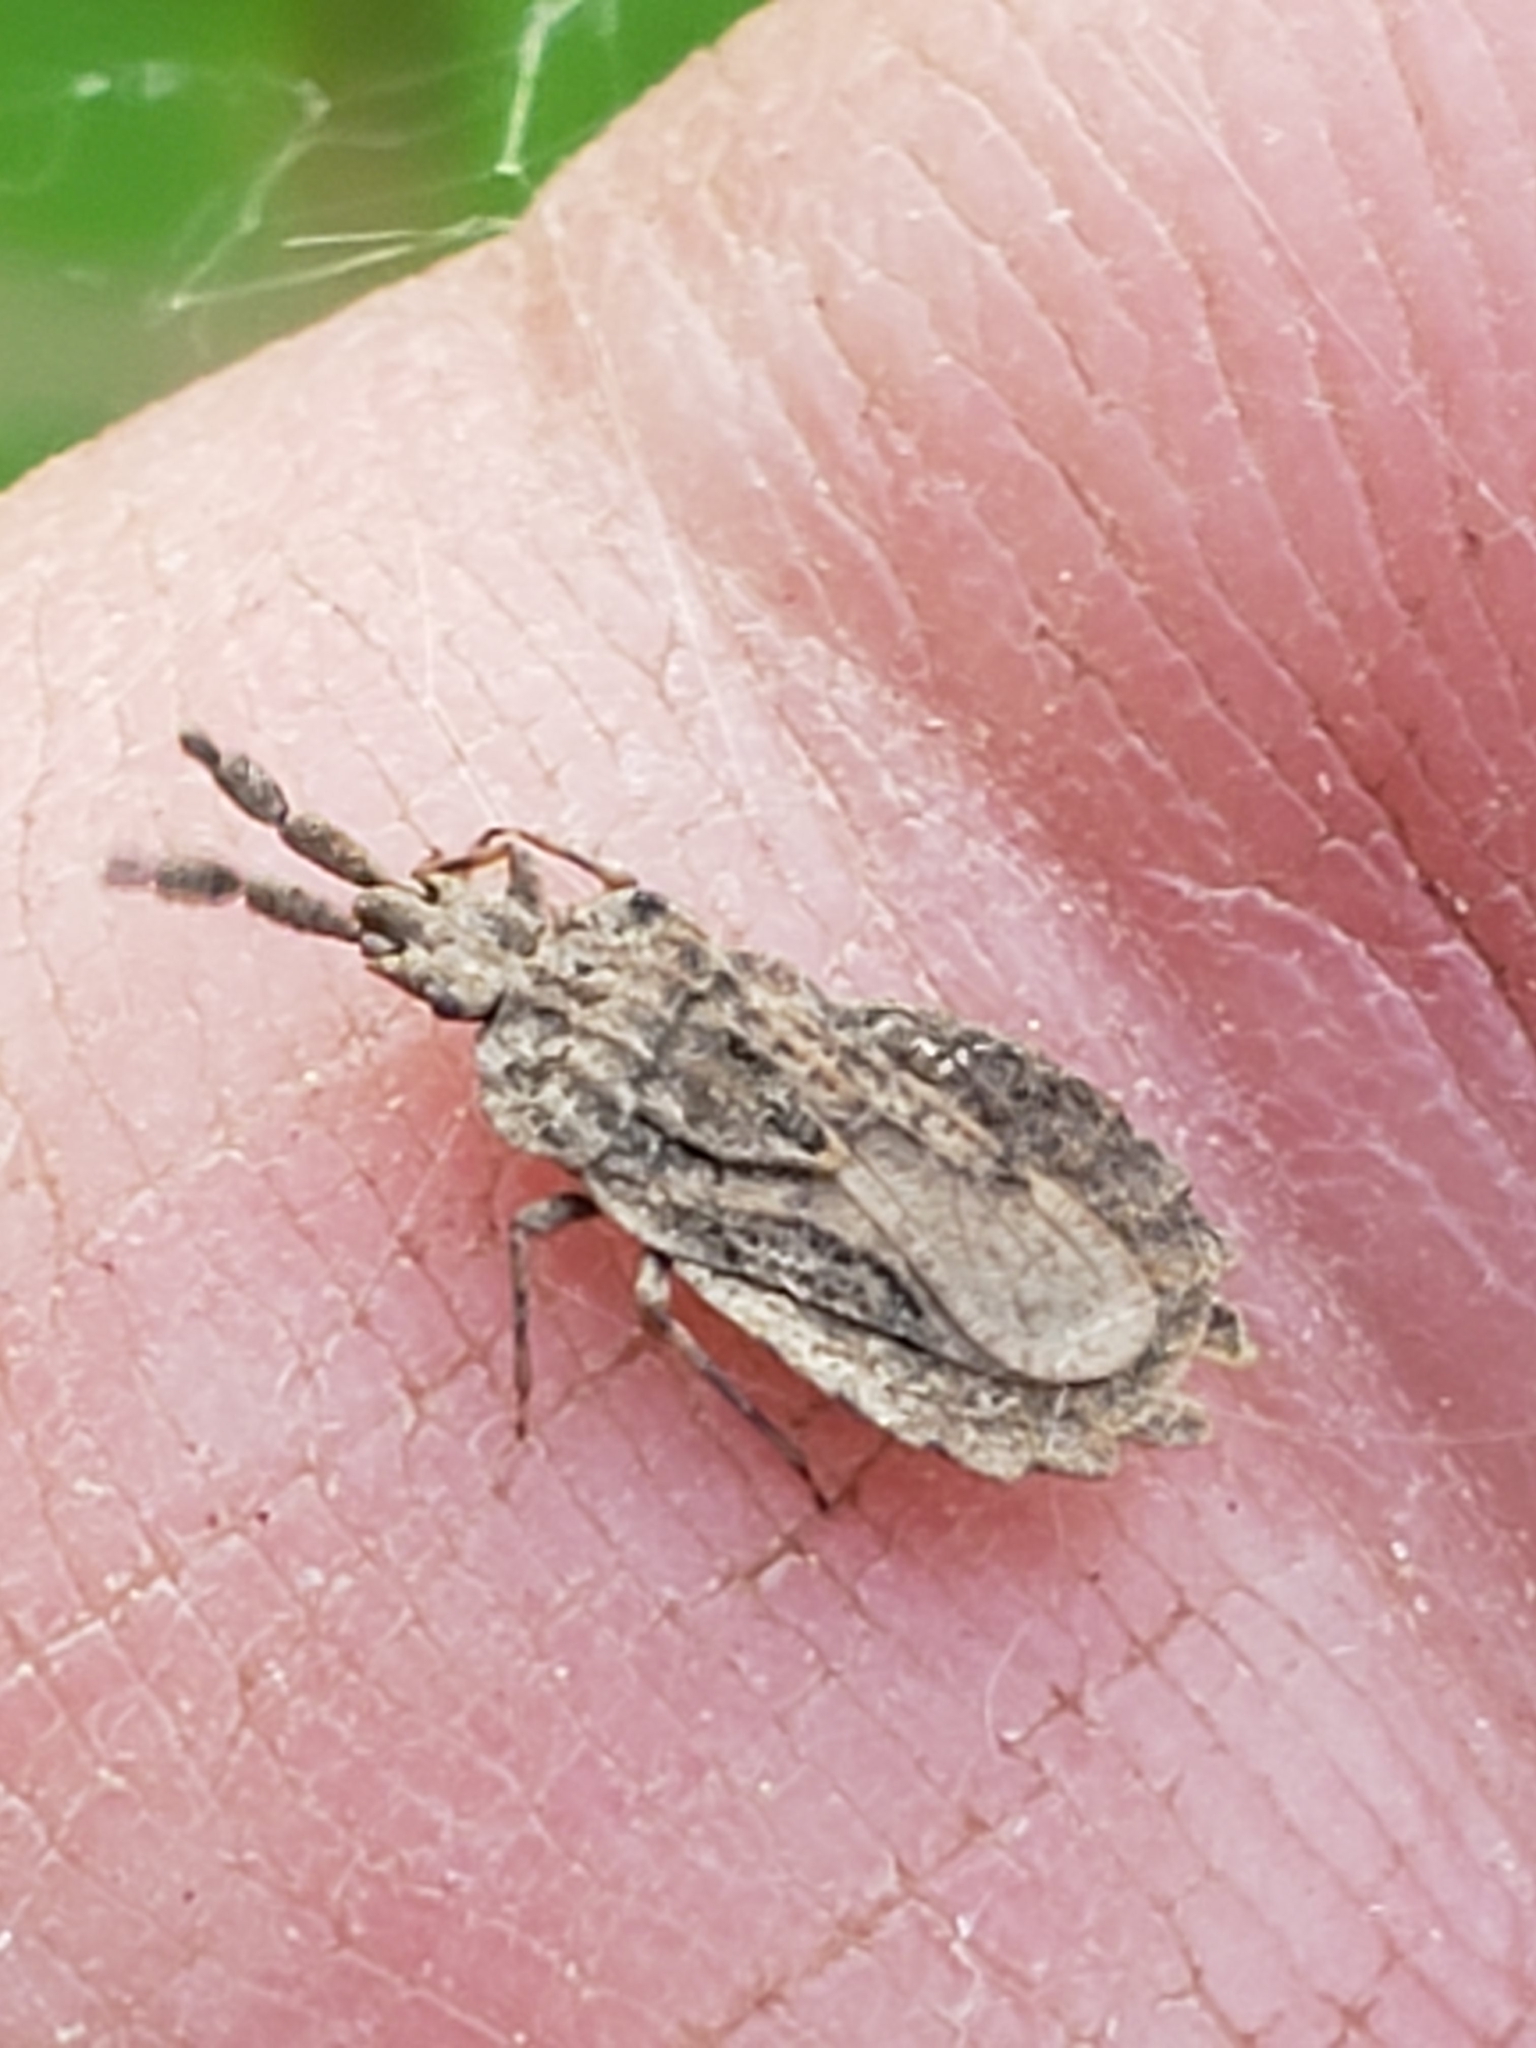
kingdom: Animalia
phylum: Arthropoda
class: Insecta
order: Hemiptera
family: Aradidae
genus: Aradus
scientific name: Aradus robustus
